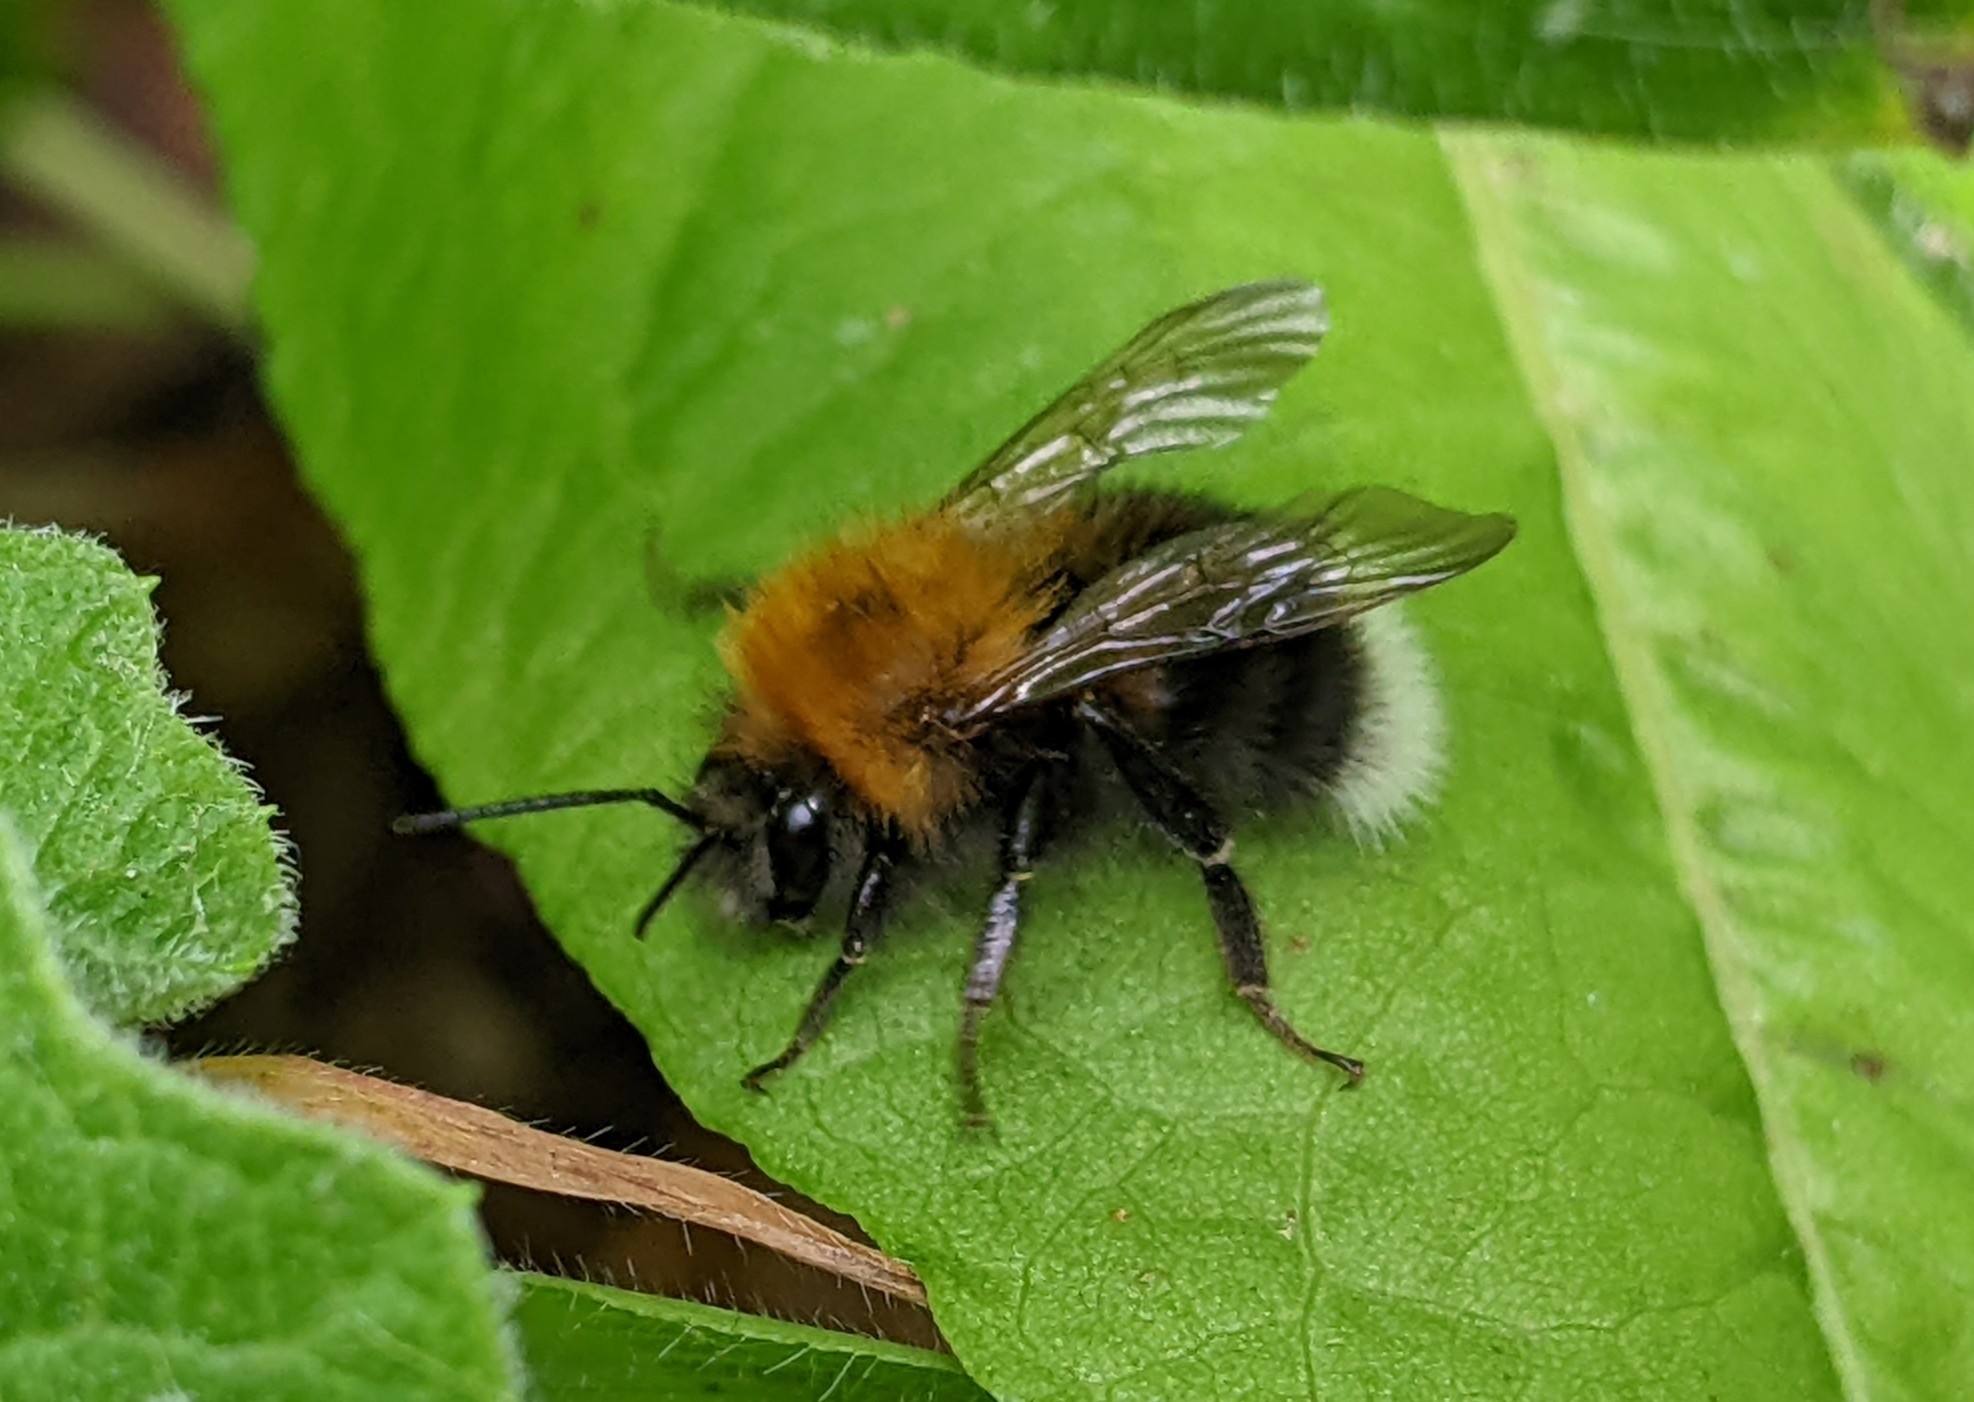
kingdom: Animalia
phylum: Arthropoda
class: Insecta
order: Hymenoptera
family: Apidae
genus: Bombus
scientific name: Bombus hypnorum
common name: New garden bumblebee
